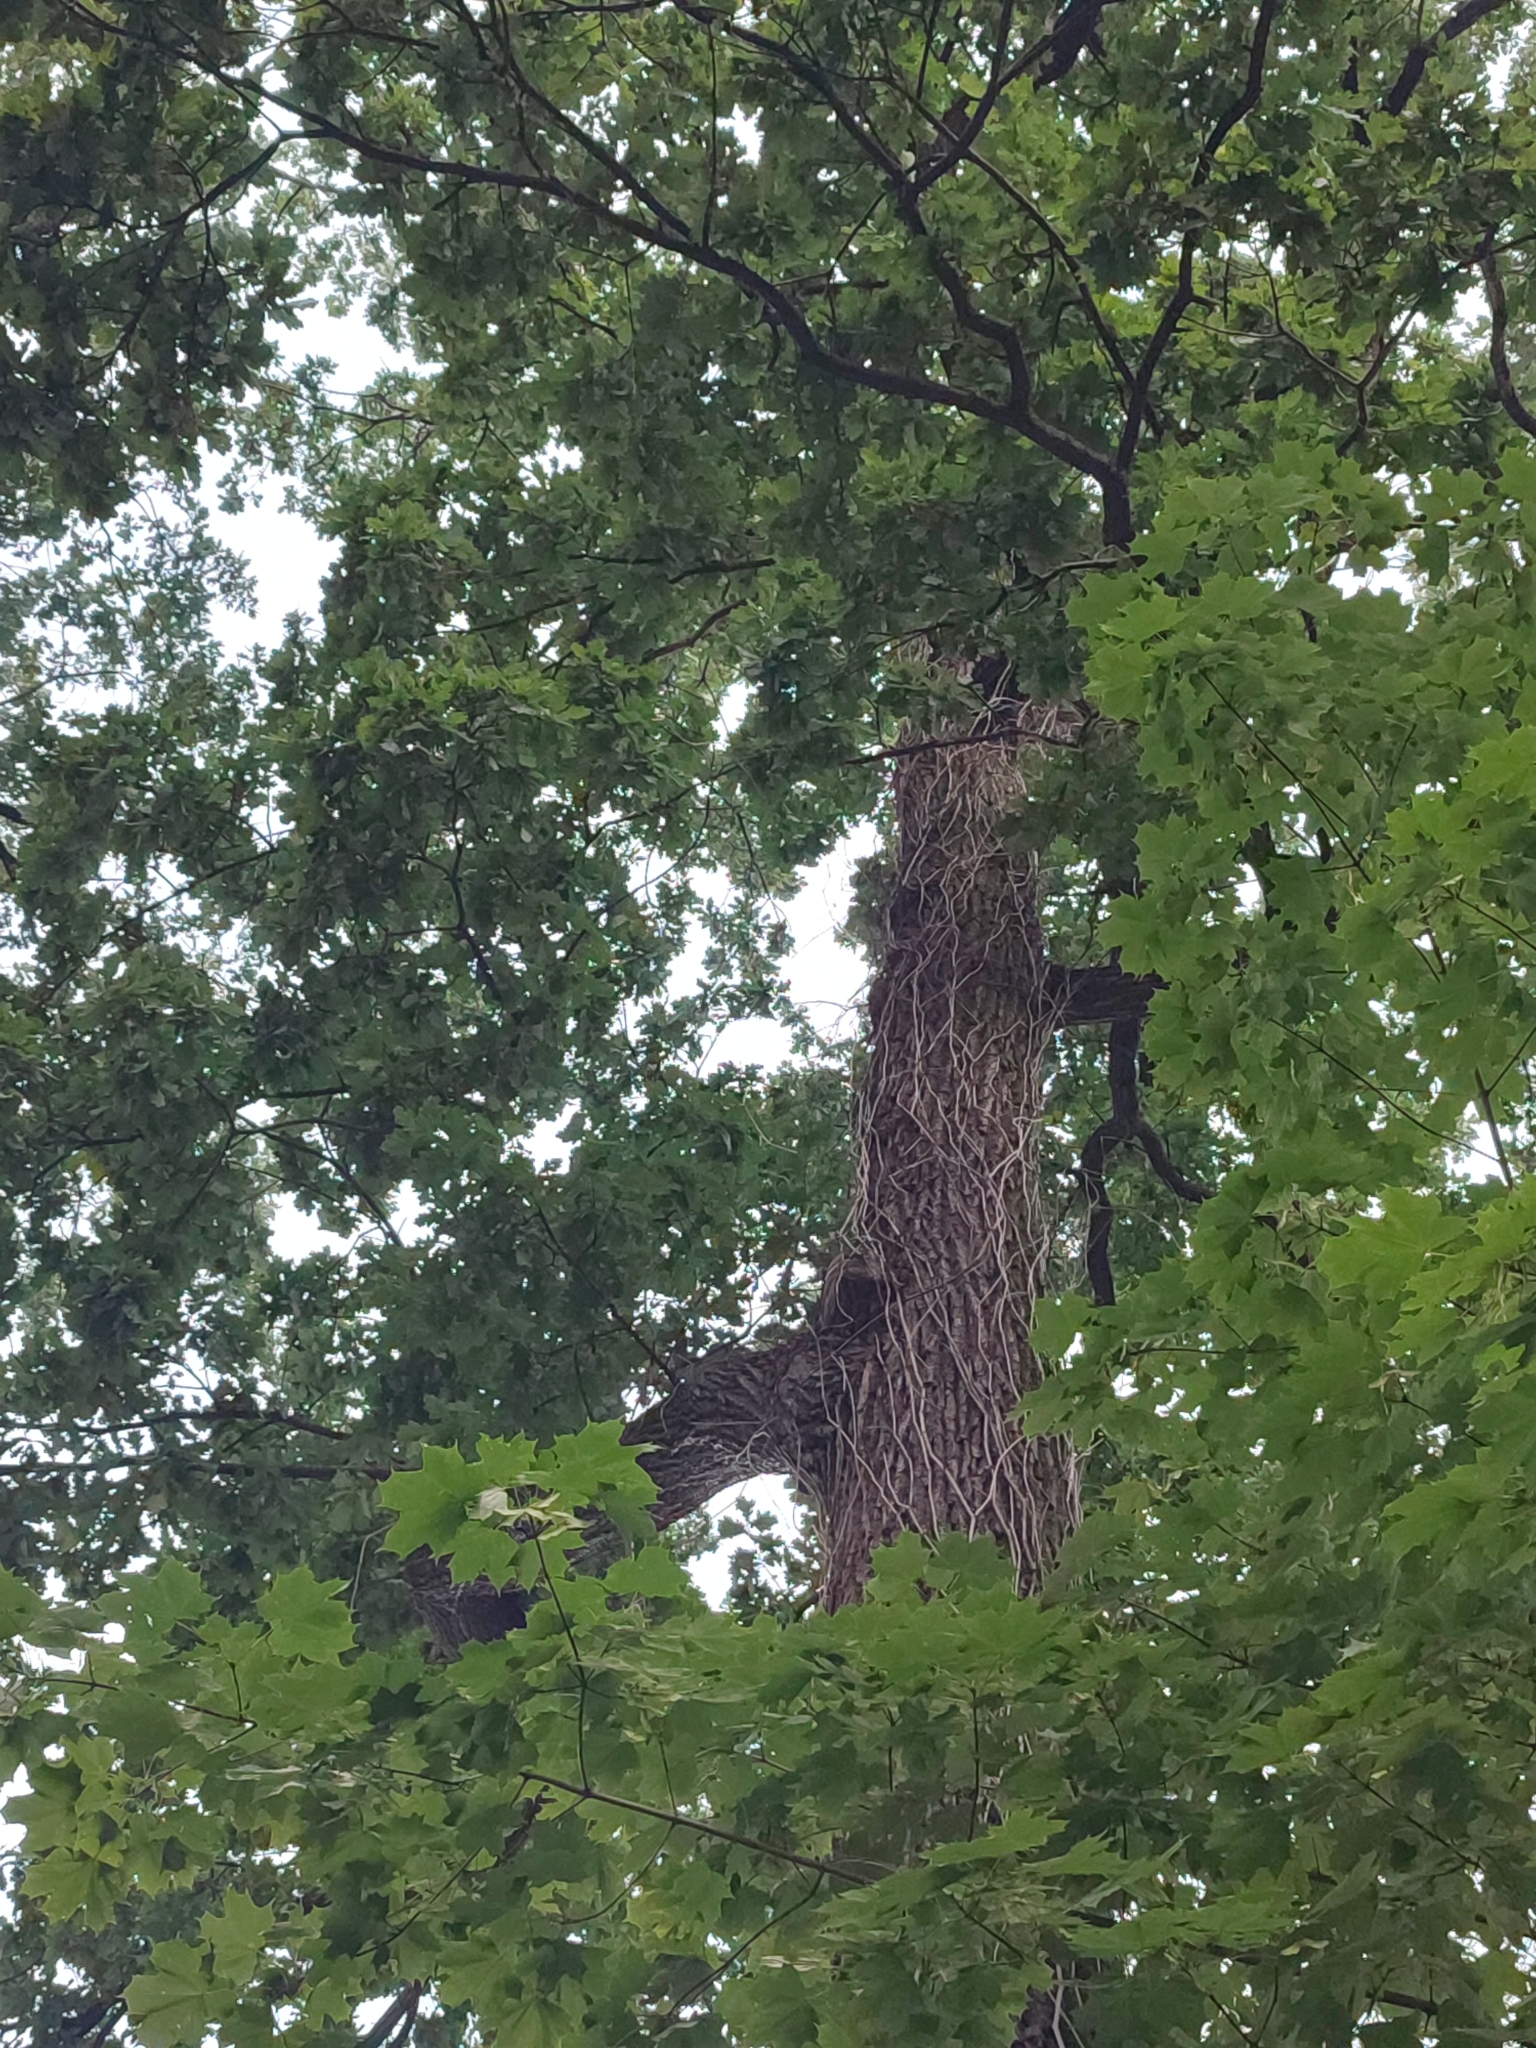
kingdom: Plantae
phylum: Tracheophyta
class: Magnoliopsida
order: Fagales
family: Fagaceae
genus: Quercus
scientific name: Quercus robur
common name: Pedunculate oak
